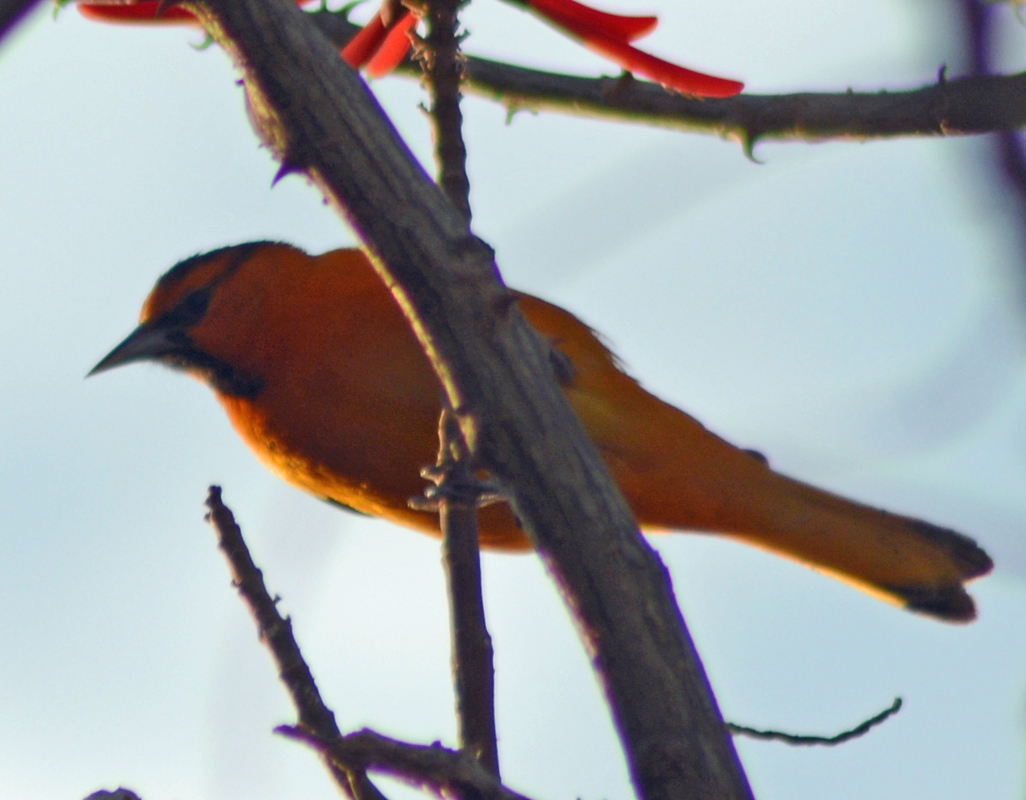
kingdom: Animalia
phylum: Chordata
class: Aves
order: Passeriformes
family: Icteridae
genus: Icterus
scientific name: Icterus bullockii
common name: Bullock's oriole
